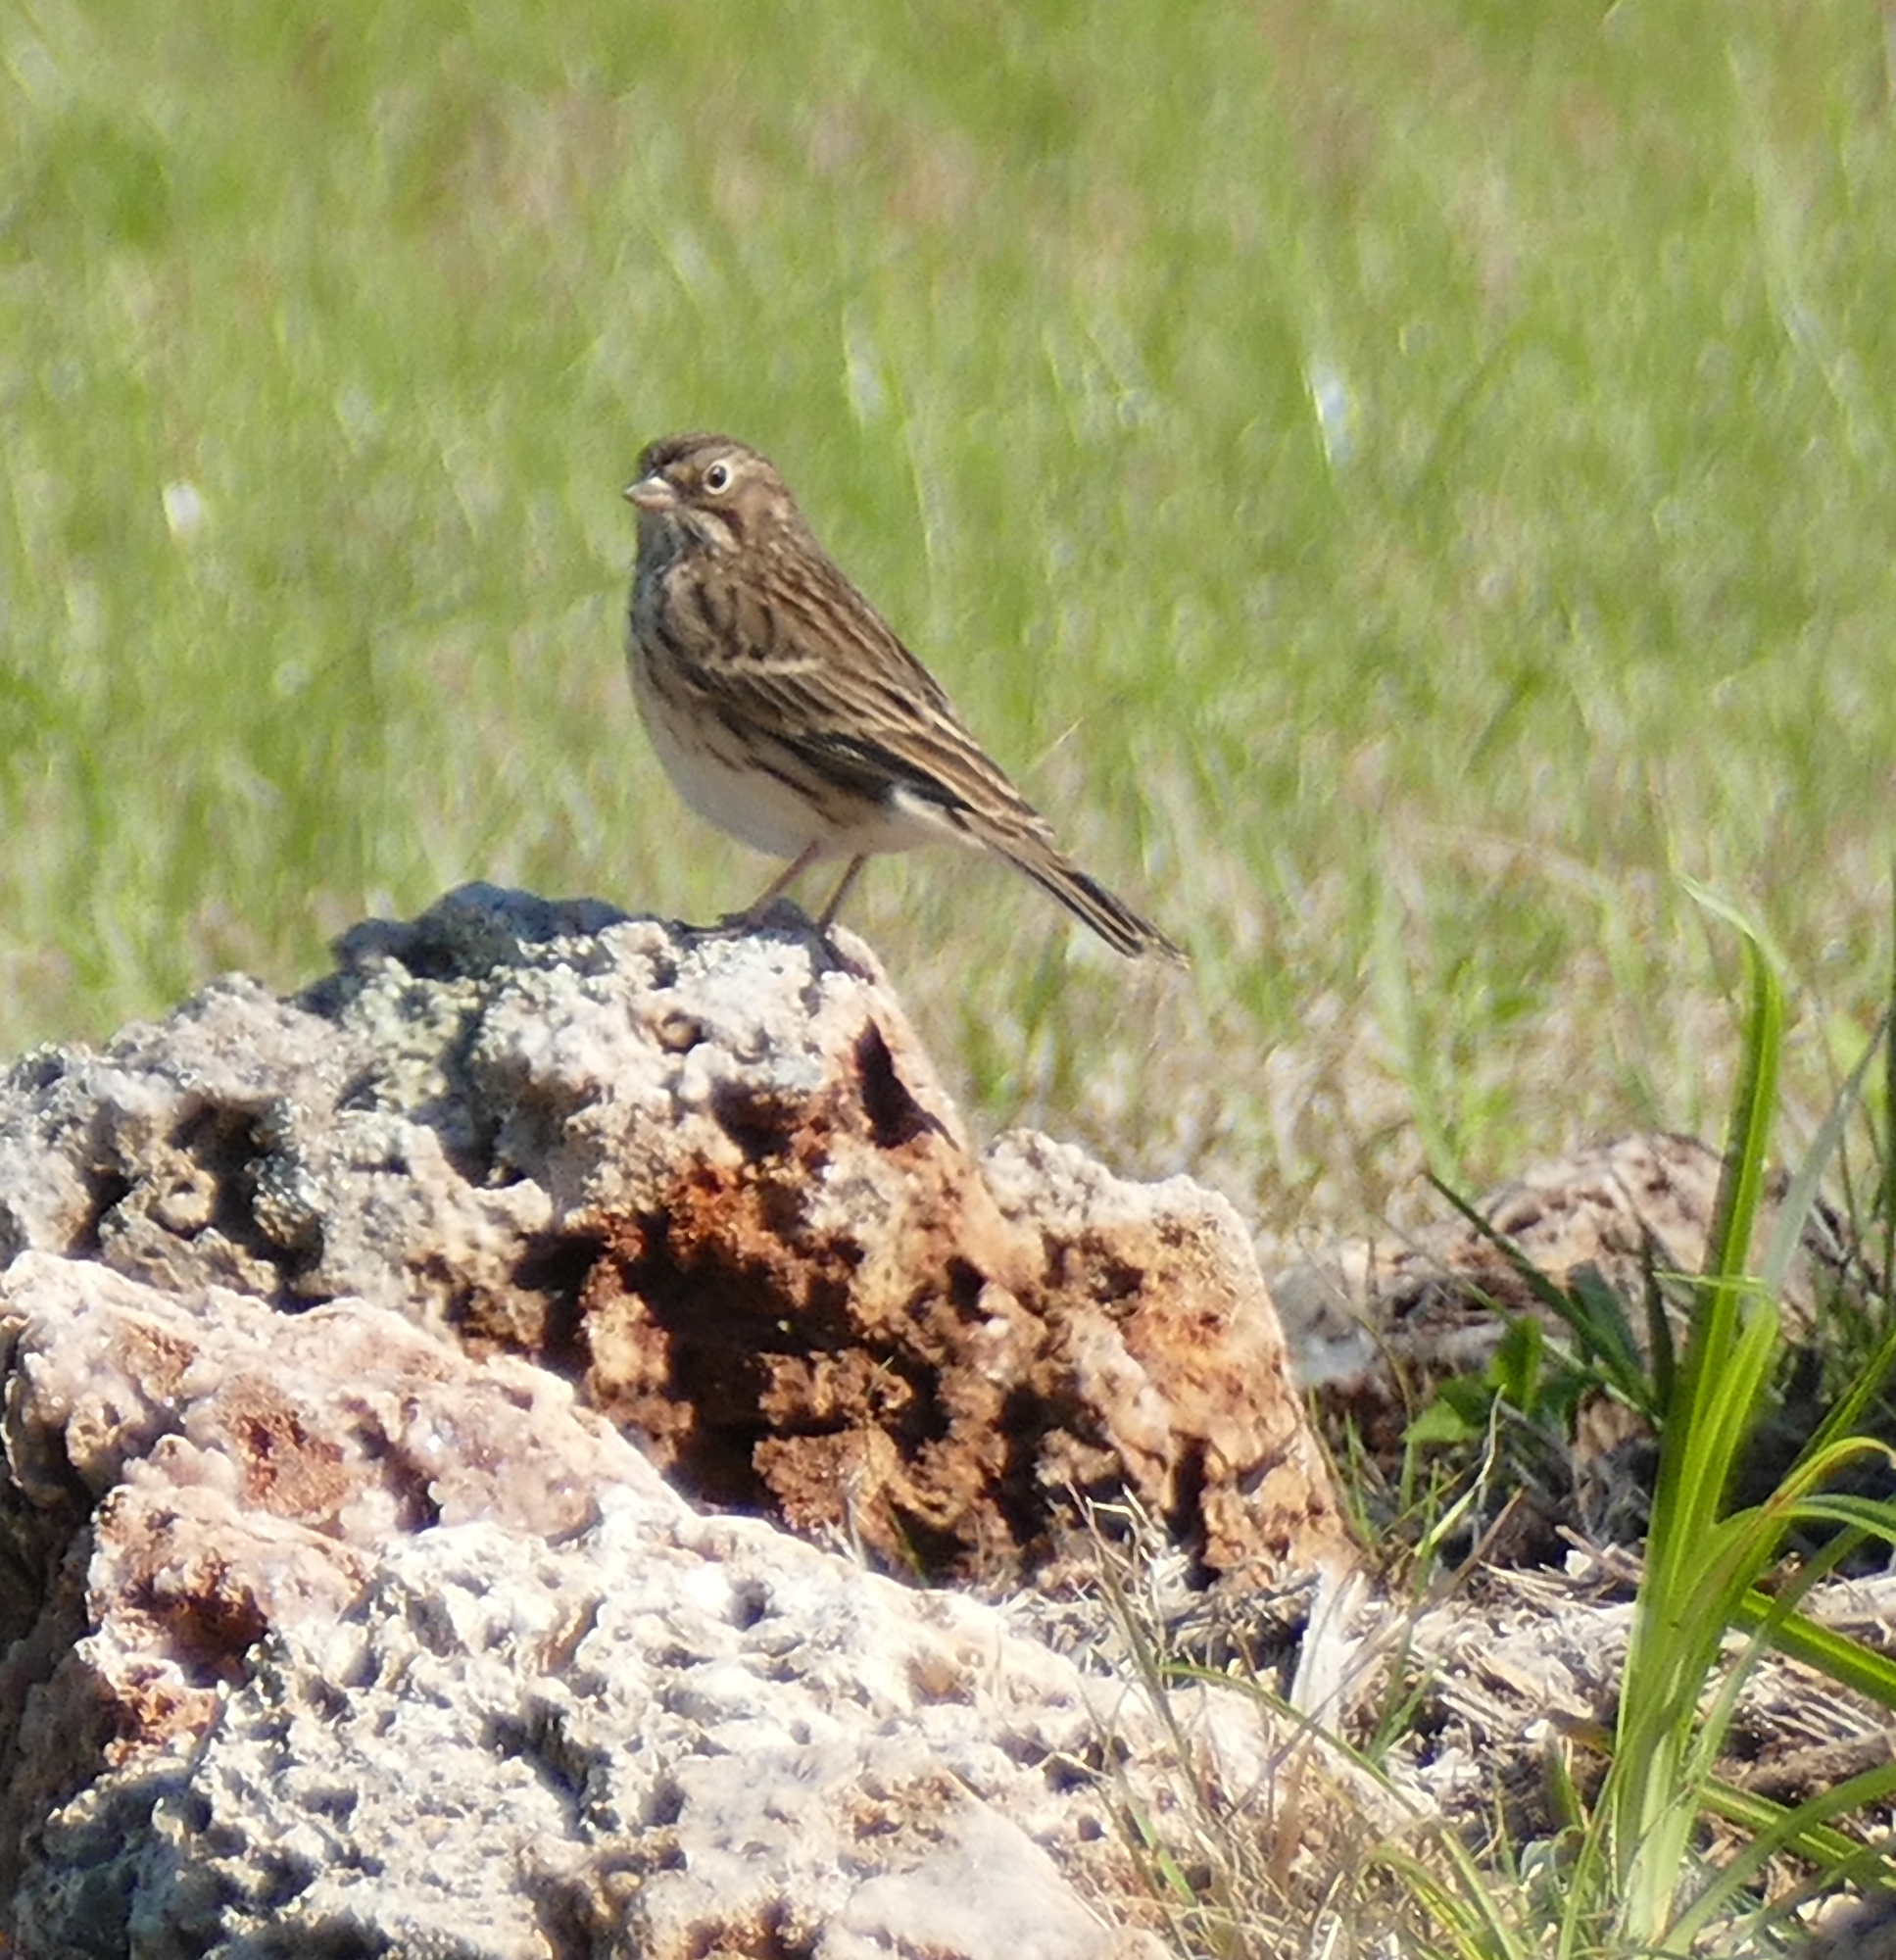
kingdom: Animalia
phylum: Chordata
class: Aves
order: Passeriformes
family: Passerellidae
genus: Pooecetes
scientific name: Pooecetes gramineus
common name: Vesper sparrow
